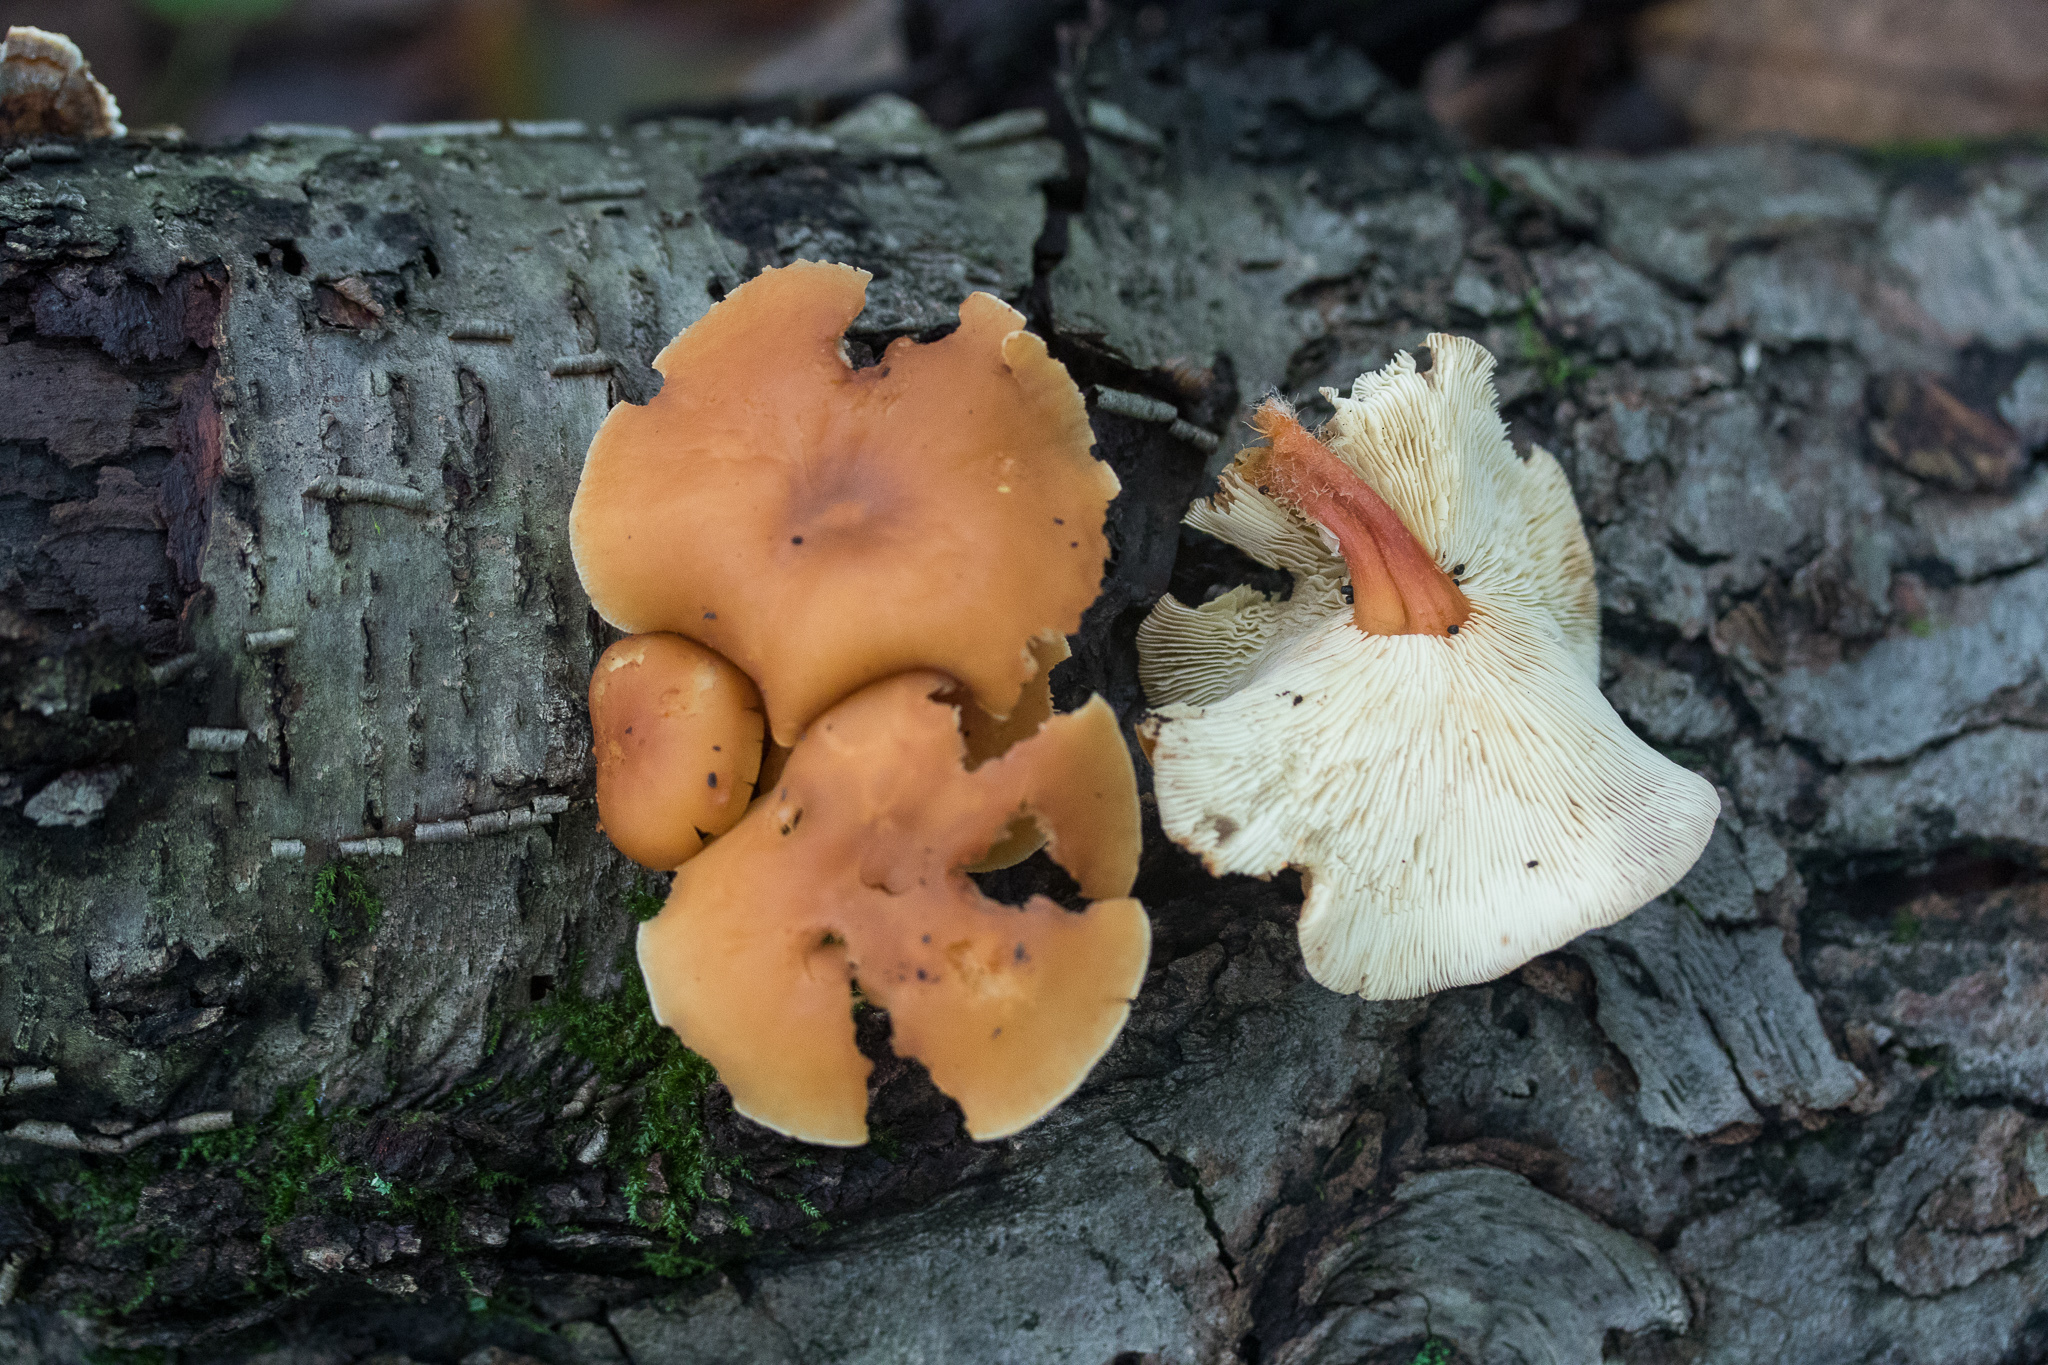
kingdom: Fungi
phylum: Basidiomycota
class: Agaricomycetes
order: Agaricales
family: Omphalotaceae
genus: Gymnopus
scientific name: Gymnopus dryophilus
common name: Penny top
